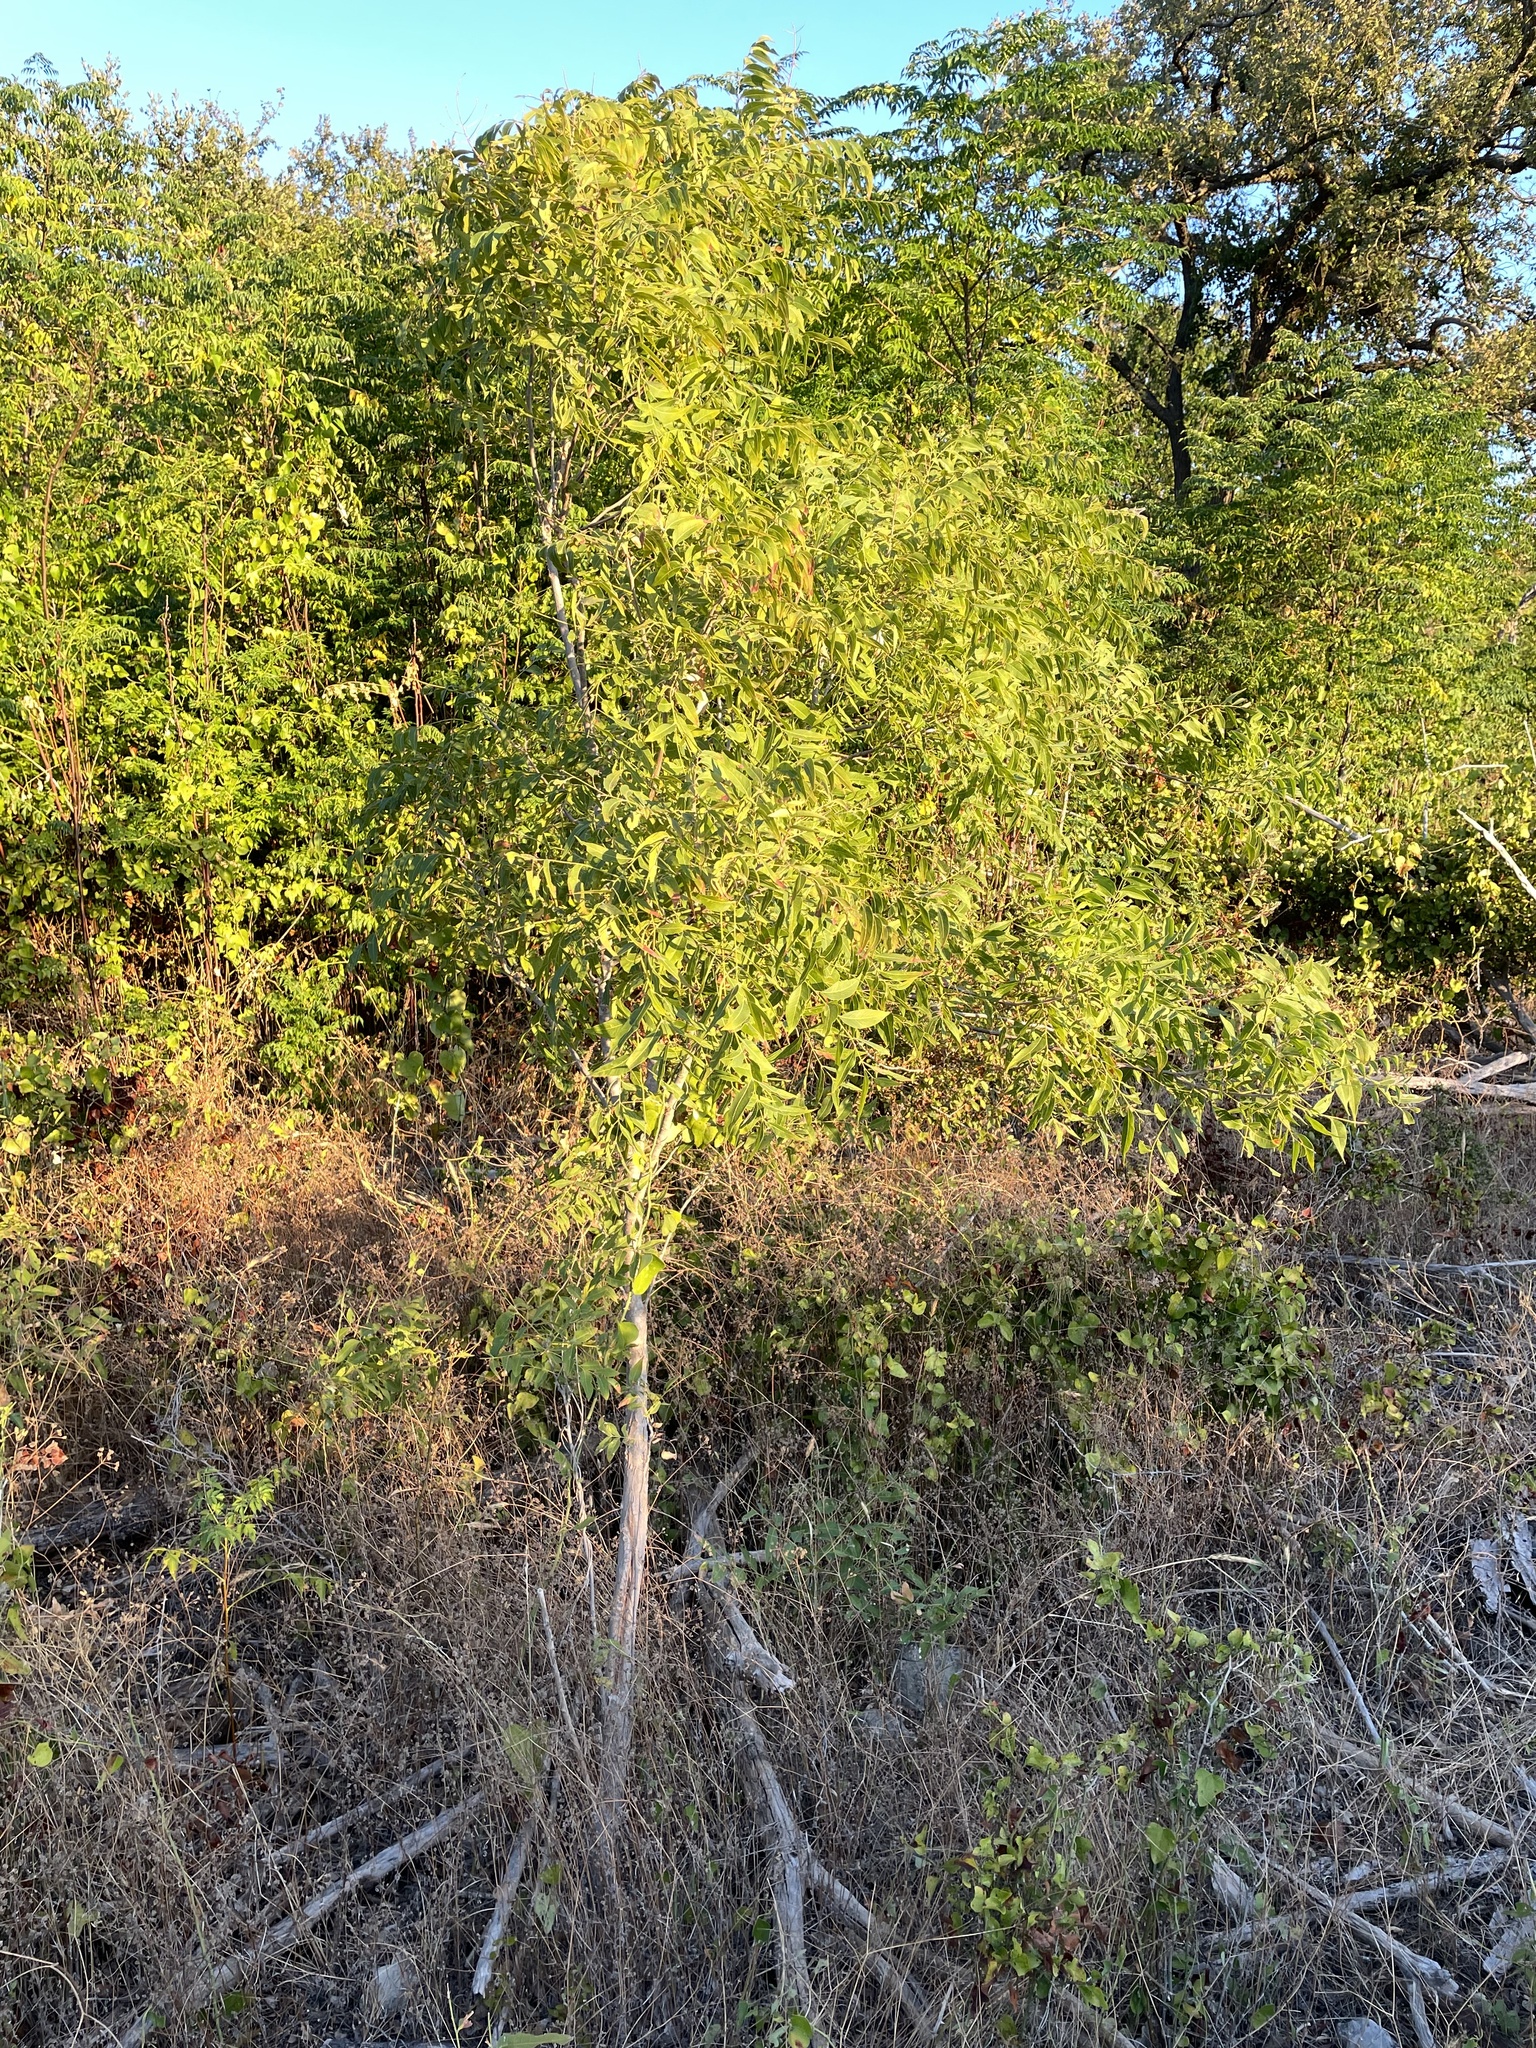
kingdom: Plantae
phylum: Tracheophyta
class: Magnoliopsida
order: Sapindales
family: Sapindaceae
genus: Sapindus
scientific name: Sapindus drummondii
